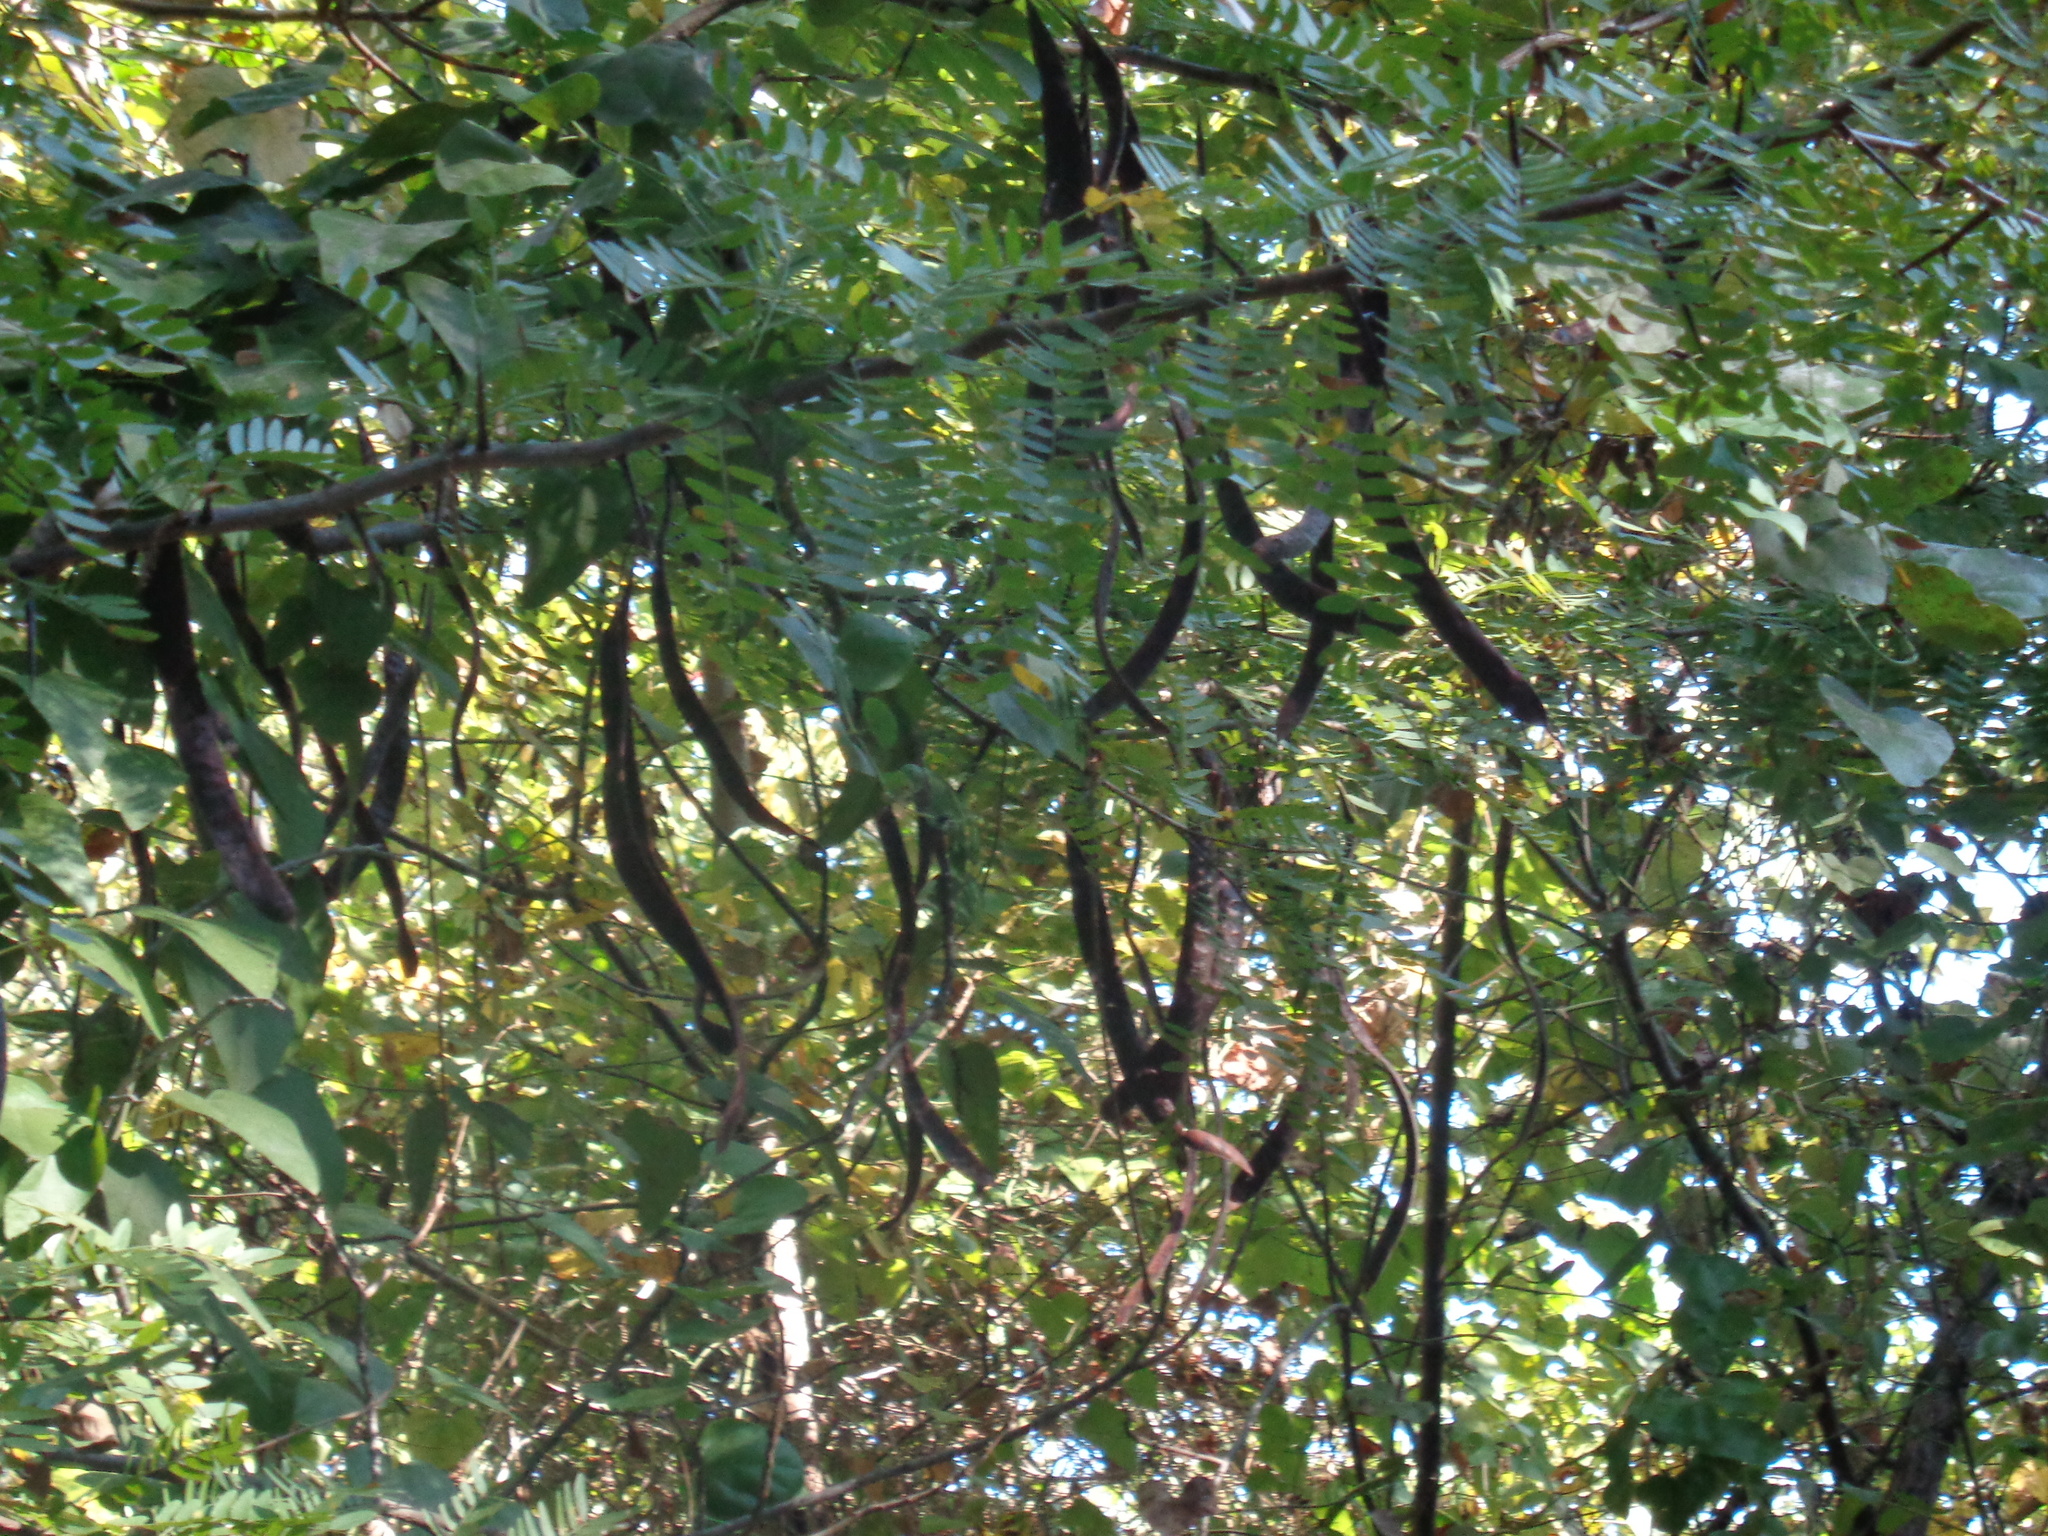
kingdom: Plantae
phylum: Tracheophyta
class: Magnoliopsida
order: Fabales
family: Fabaceae
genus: Gleditsia
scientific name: Gleditsia triacanthos
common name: Common honeylocust
